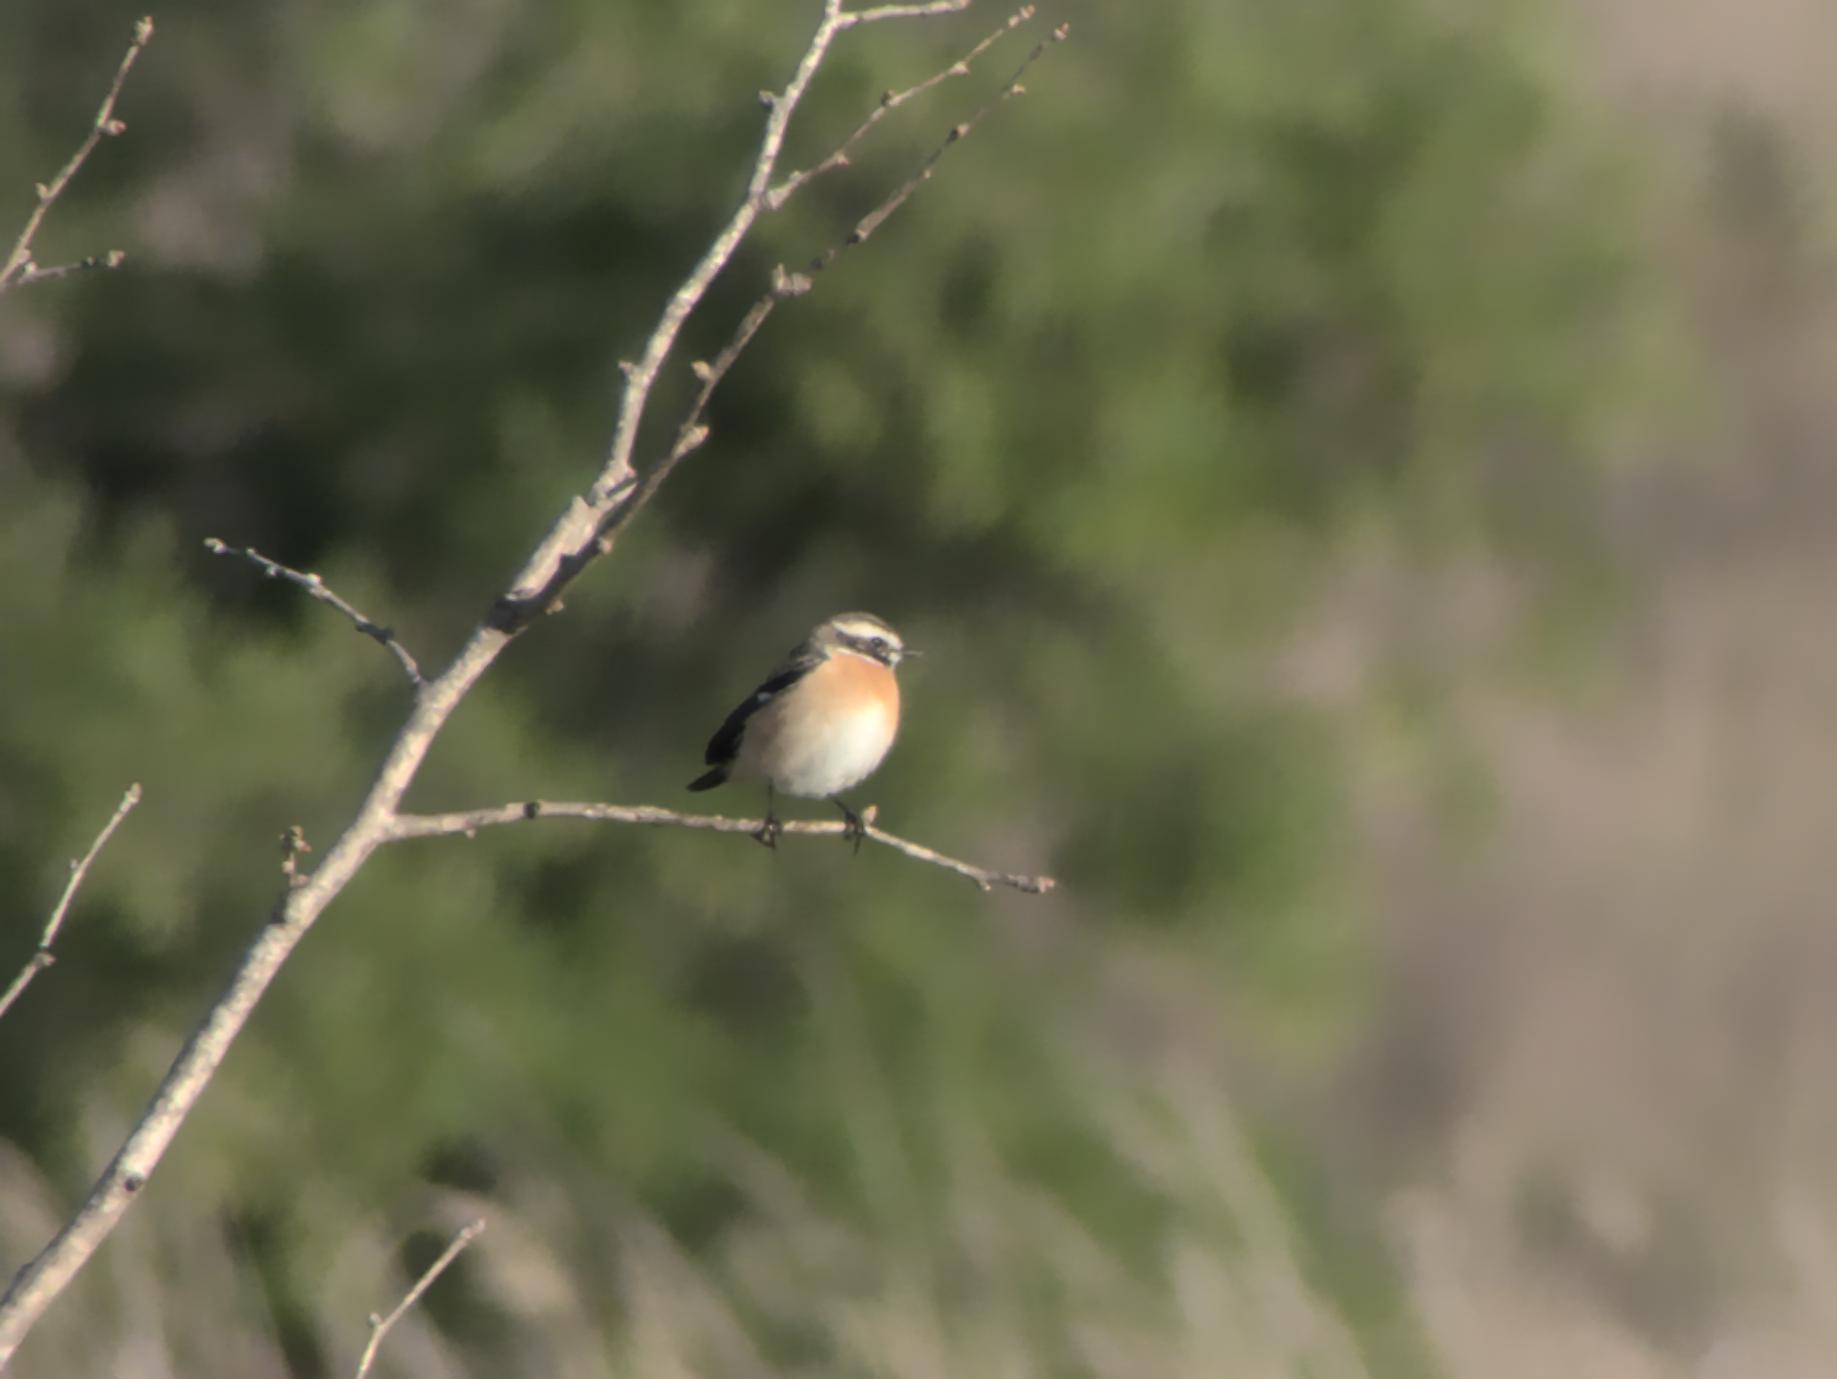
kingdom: Animalia
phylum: Chordata
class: Aves
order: Passeriformes
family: Muscicapidae
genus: Saxicola
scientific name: Saxicola rubetra
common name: Whinchat
